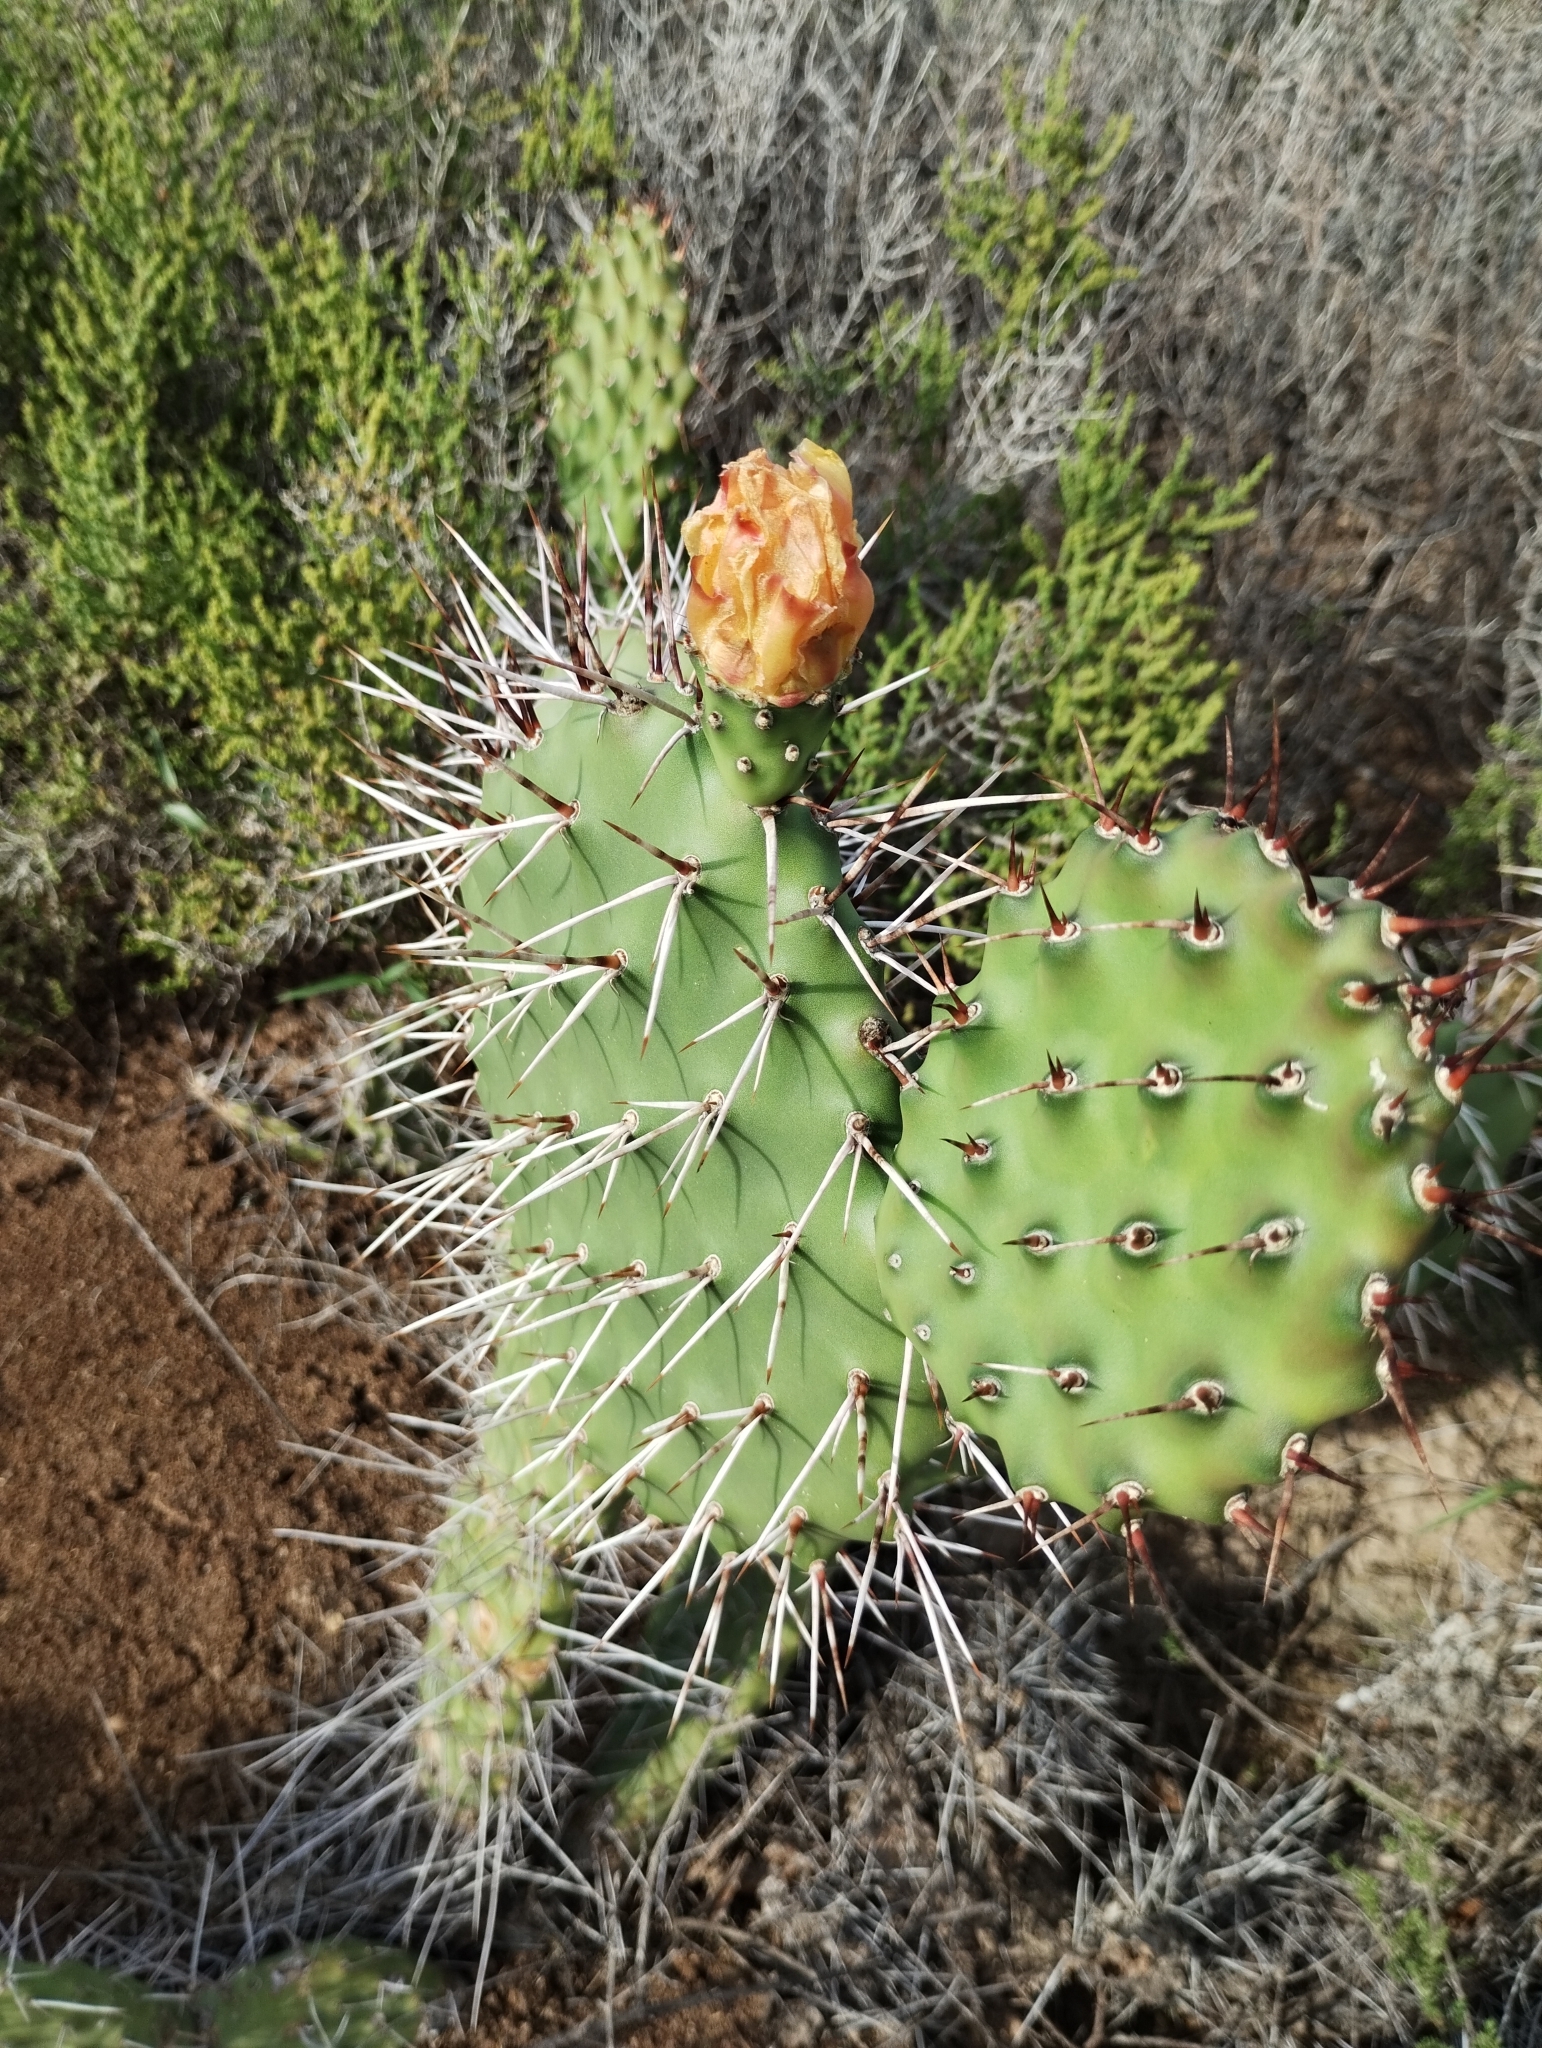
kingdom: Plantae
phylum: Tracheophyta
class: Magnoliopsida
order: Caryophyllales
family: Cactaceae
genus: Opuntia
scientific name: Opuntia sulphurea
